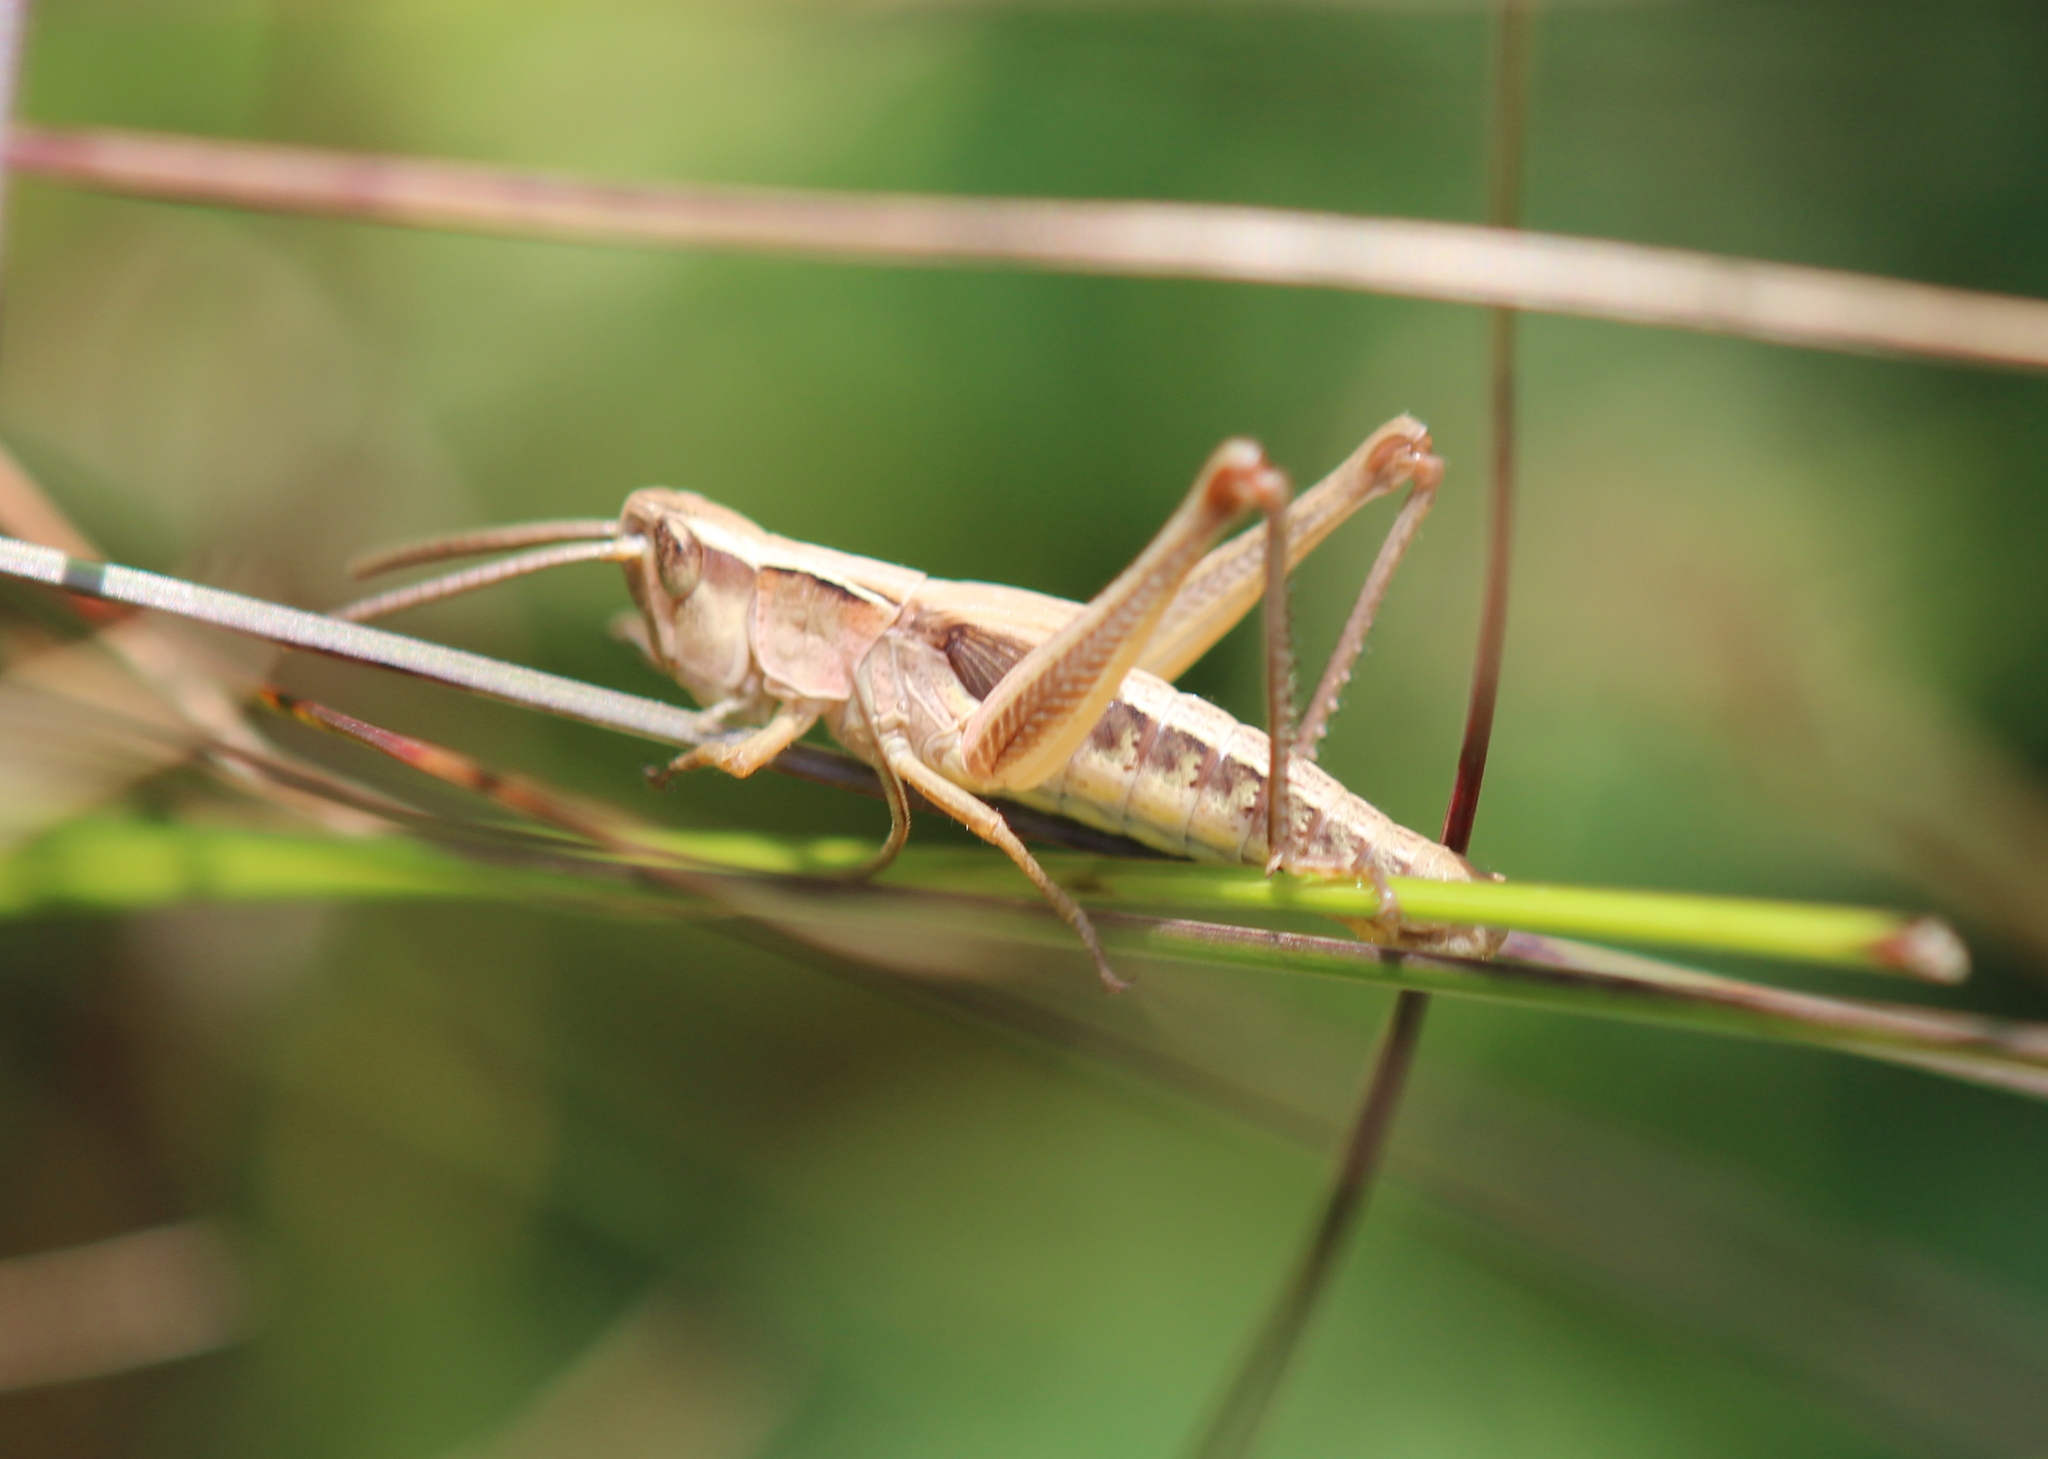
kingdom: Animalia
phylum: Arthropoda
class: Insecta
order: Orthoptera
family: Acrididae
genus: Pseudochorthippus
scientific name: Pseudochorthippus curtipennis
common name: Marsh meadow grasshopper
